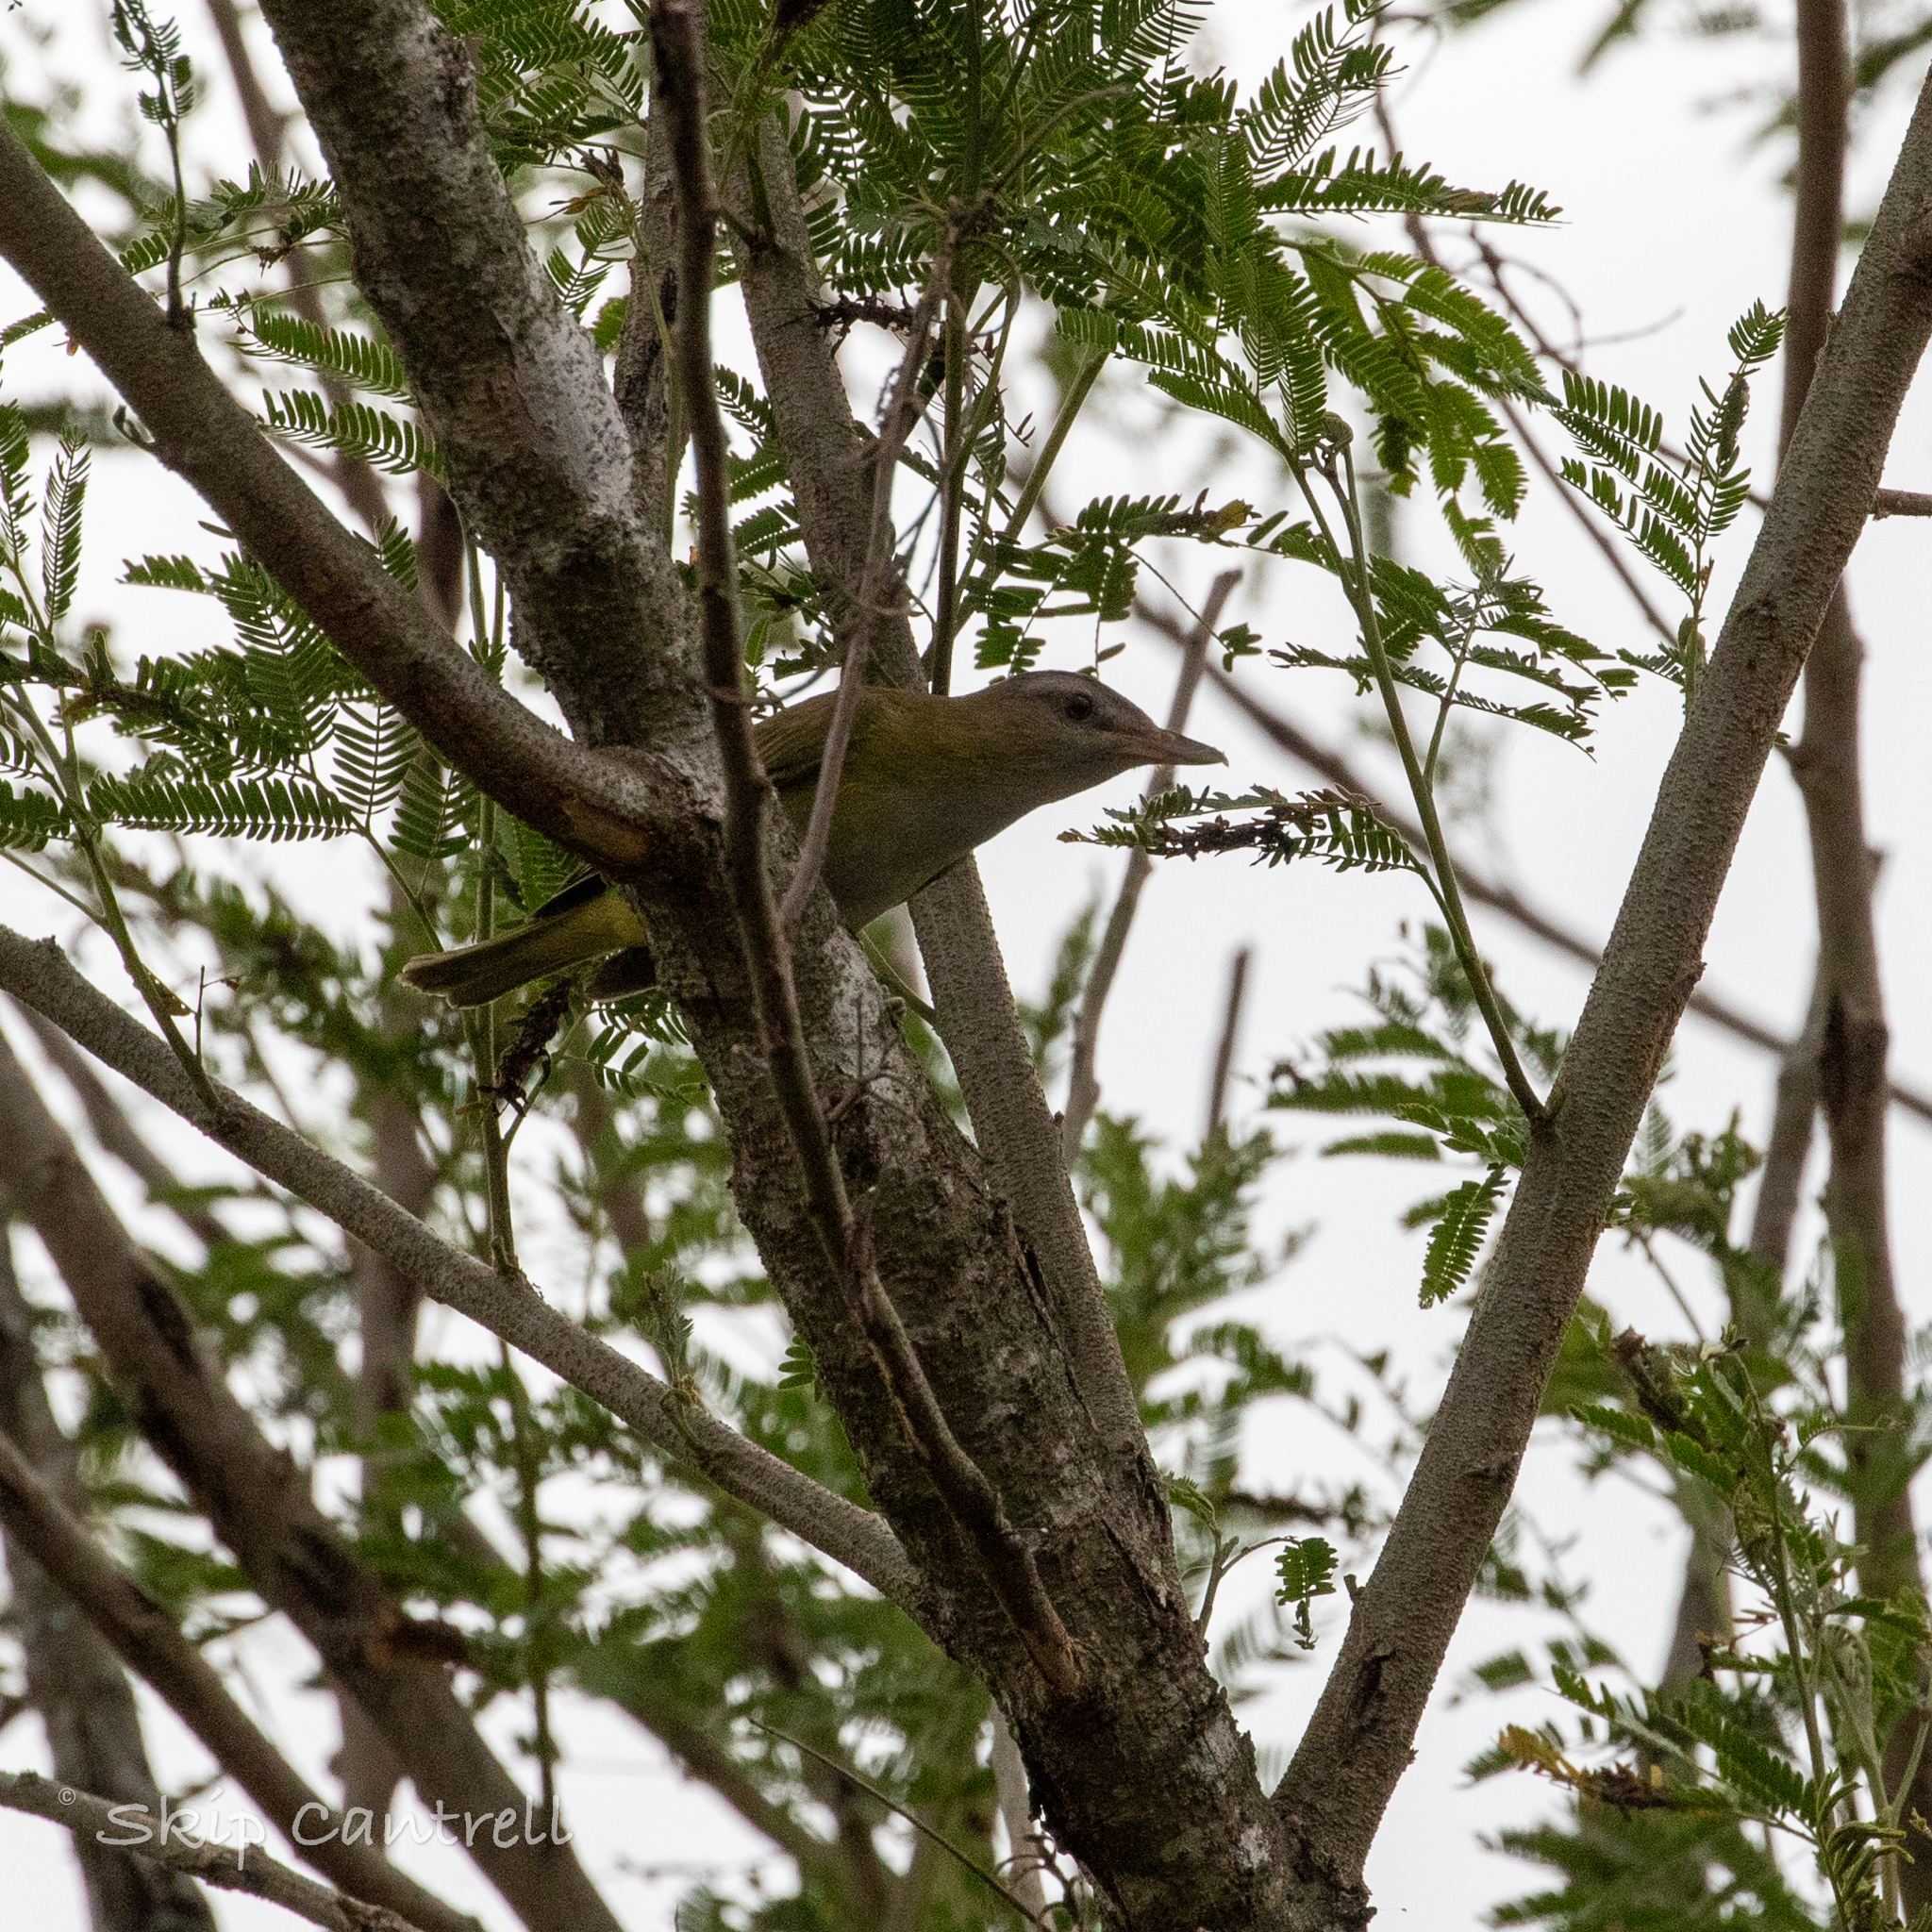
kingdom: Animalia
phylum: Chordata
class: Aves
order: Passeriformes
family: Vireonidae
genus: Vireo
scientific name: Vireo flavoviridis
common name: Yellow-green vireo
